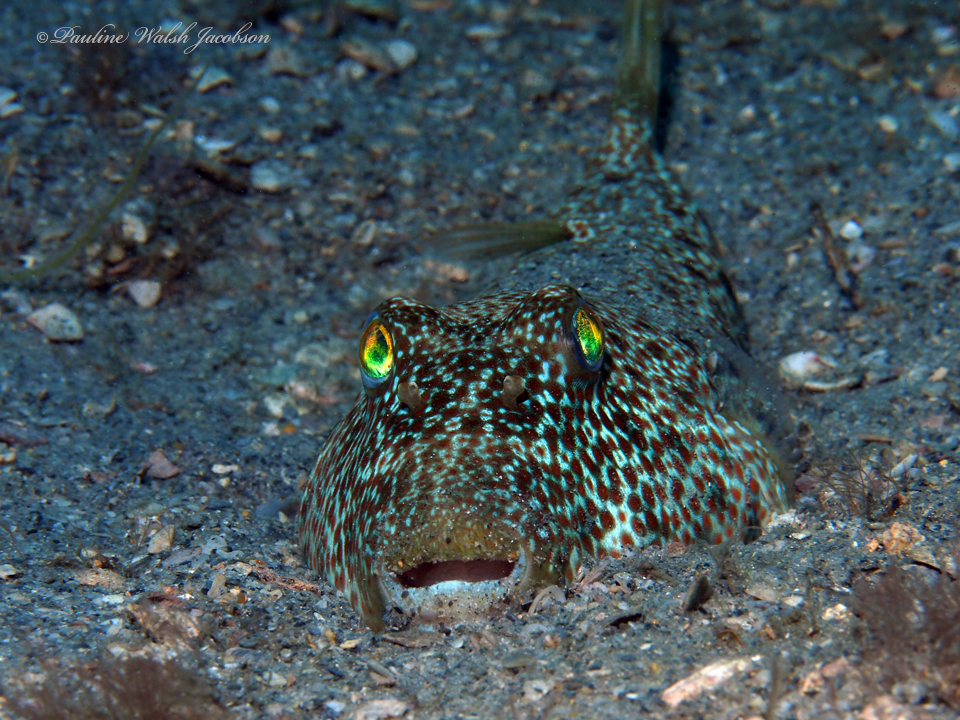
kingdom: Animalia
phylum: Chordata
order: Tetraodontiformes
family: Tetraodontidae
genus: Sphoeroides
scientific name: Sphoeroides nephelus
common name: Southern puffer
